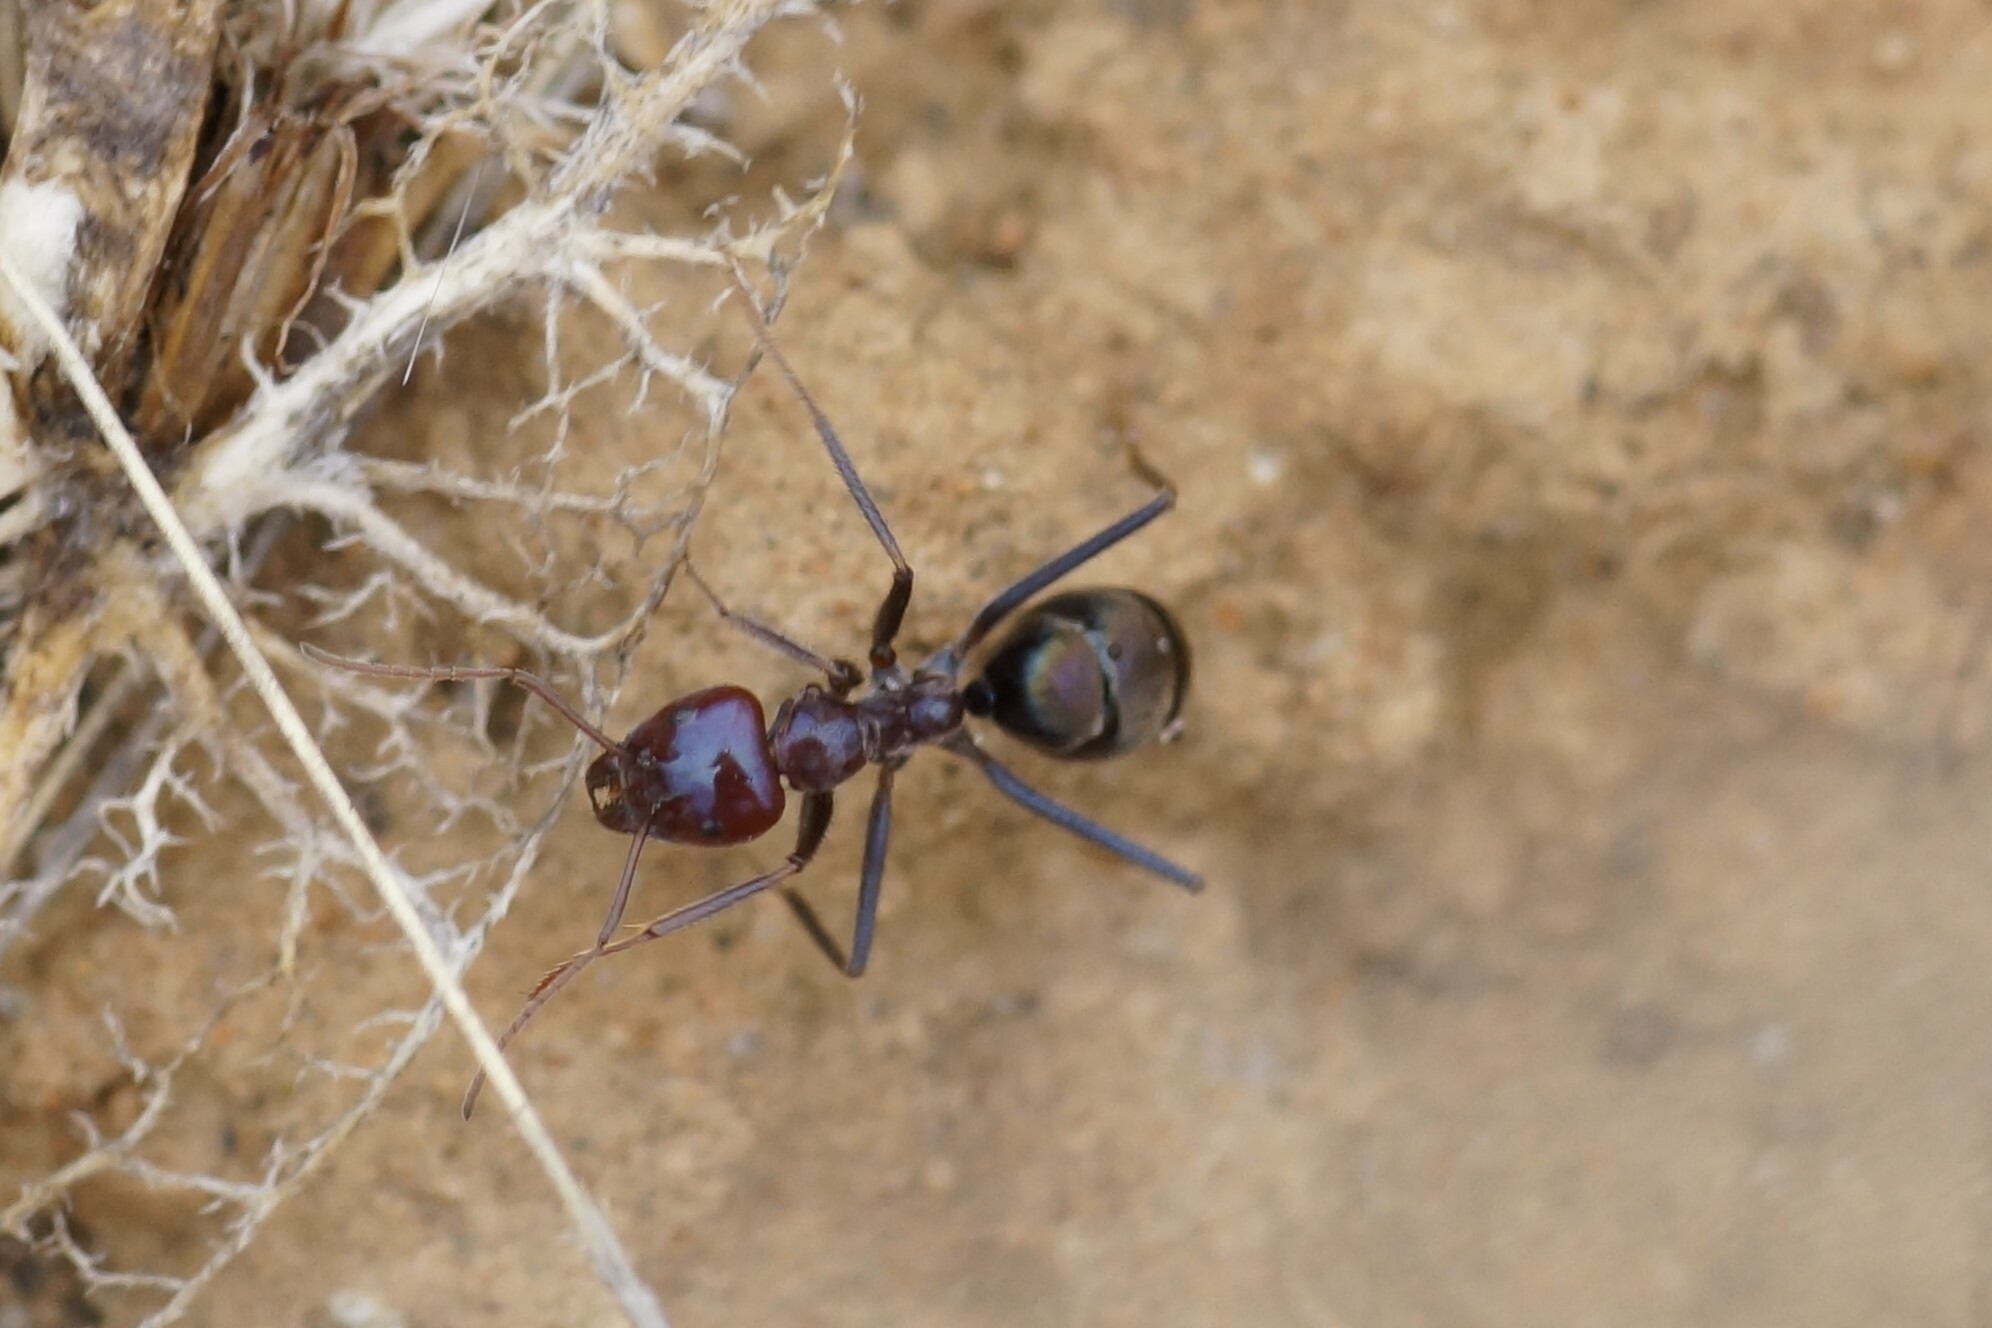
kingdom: Animalia
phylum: Arthropoda
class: Insecta
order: Hymenoptera
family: Formicidae
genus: Iridomyrmex
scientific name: Iridomyrmex purpureus
